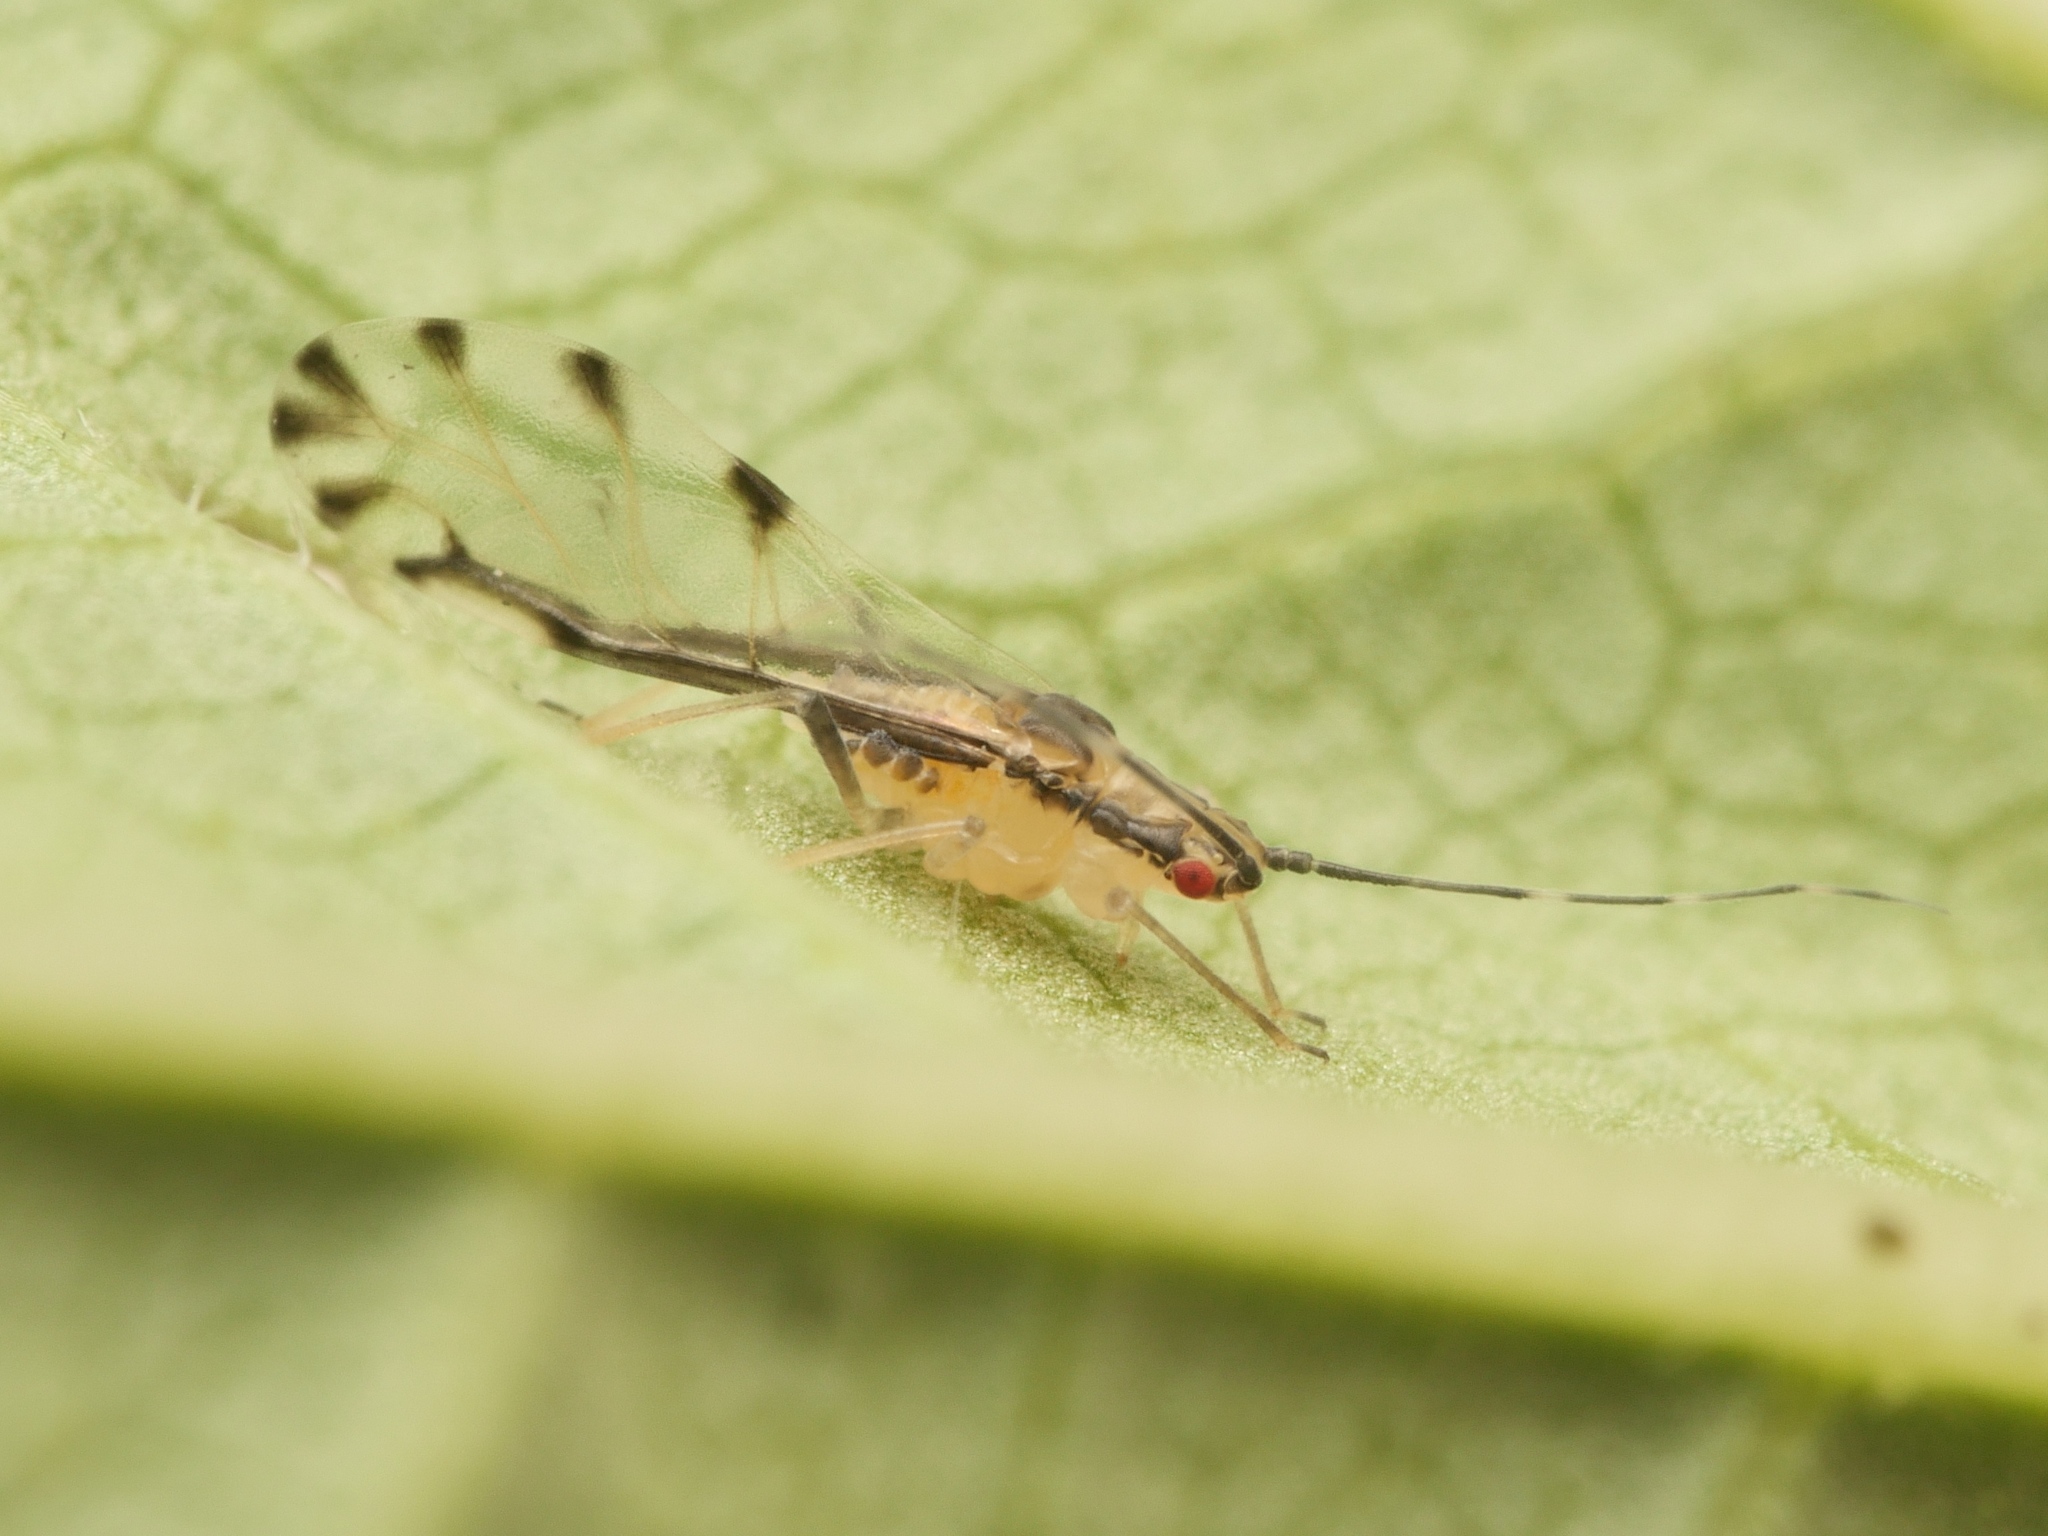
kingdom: Animalia
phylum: Arthropoda
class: Insecta
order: Hemiptera
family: Aphididae
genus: Eucallipterus
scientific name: Eucallipterus tiliae
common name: Aphid
